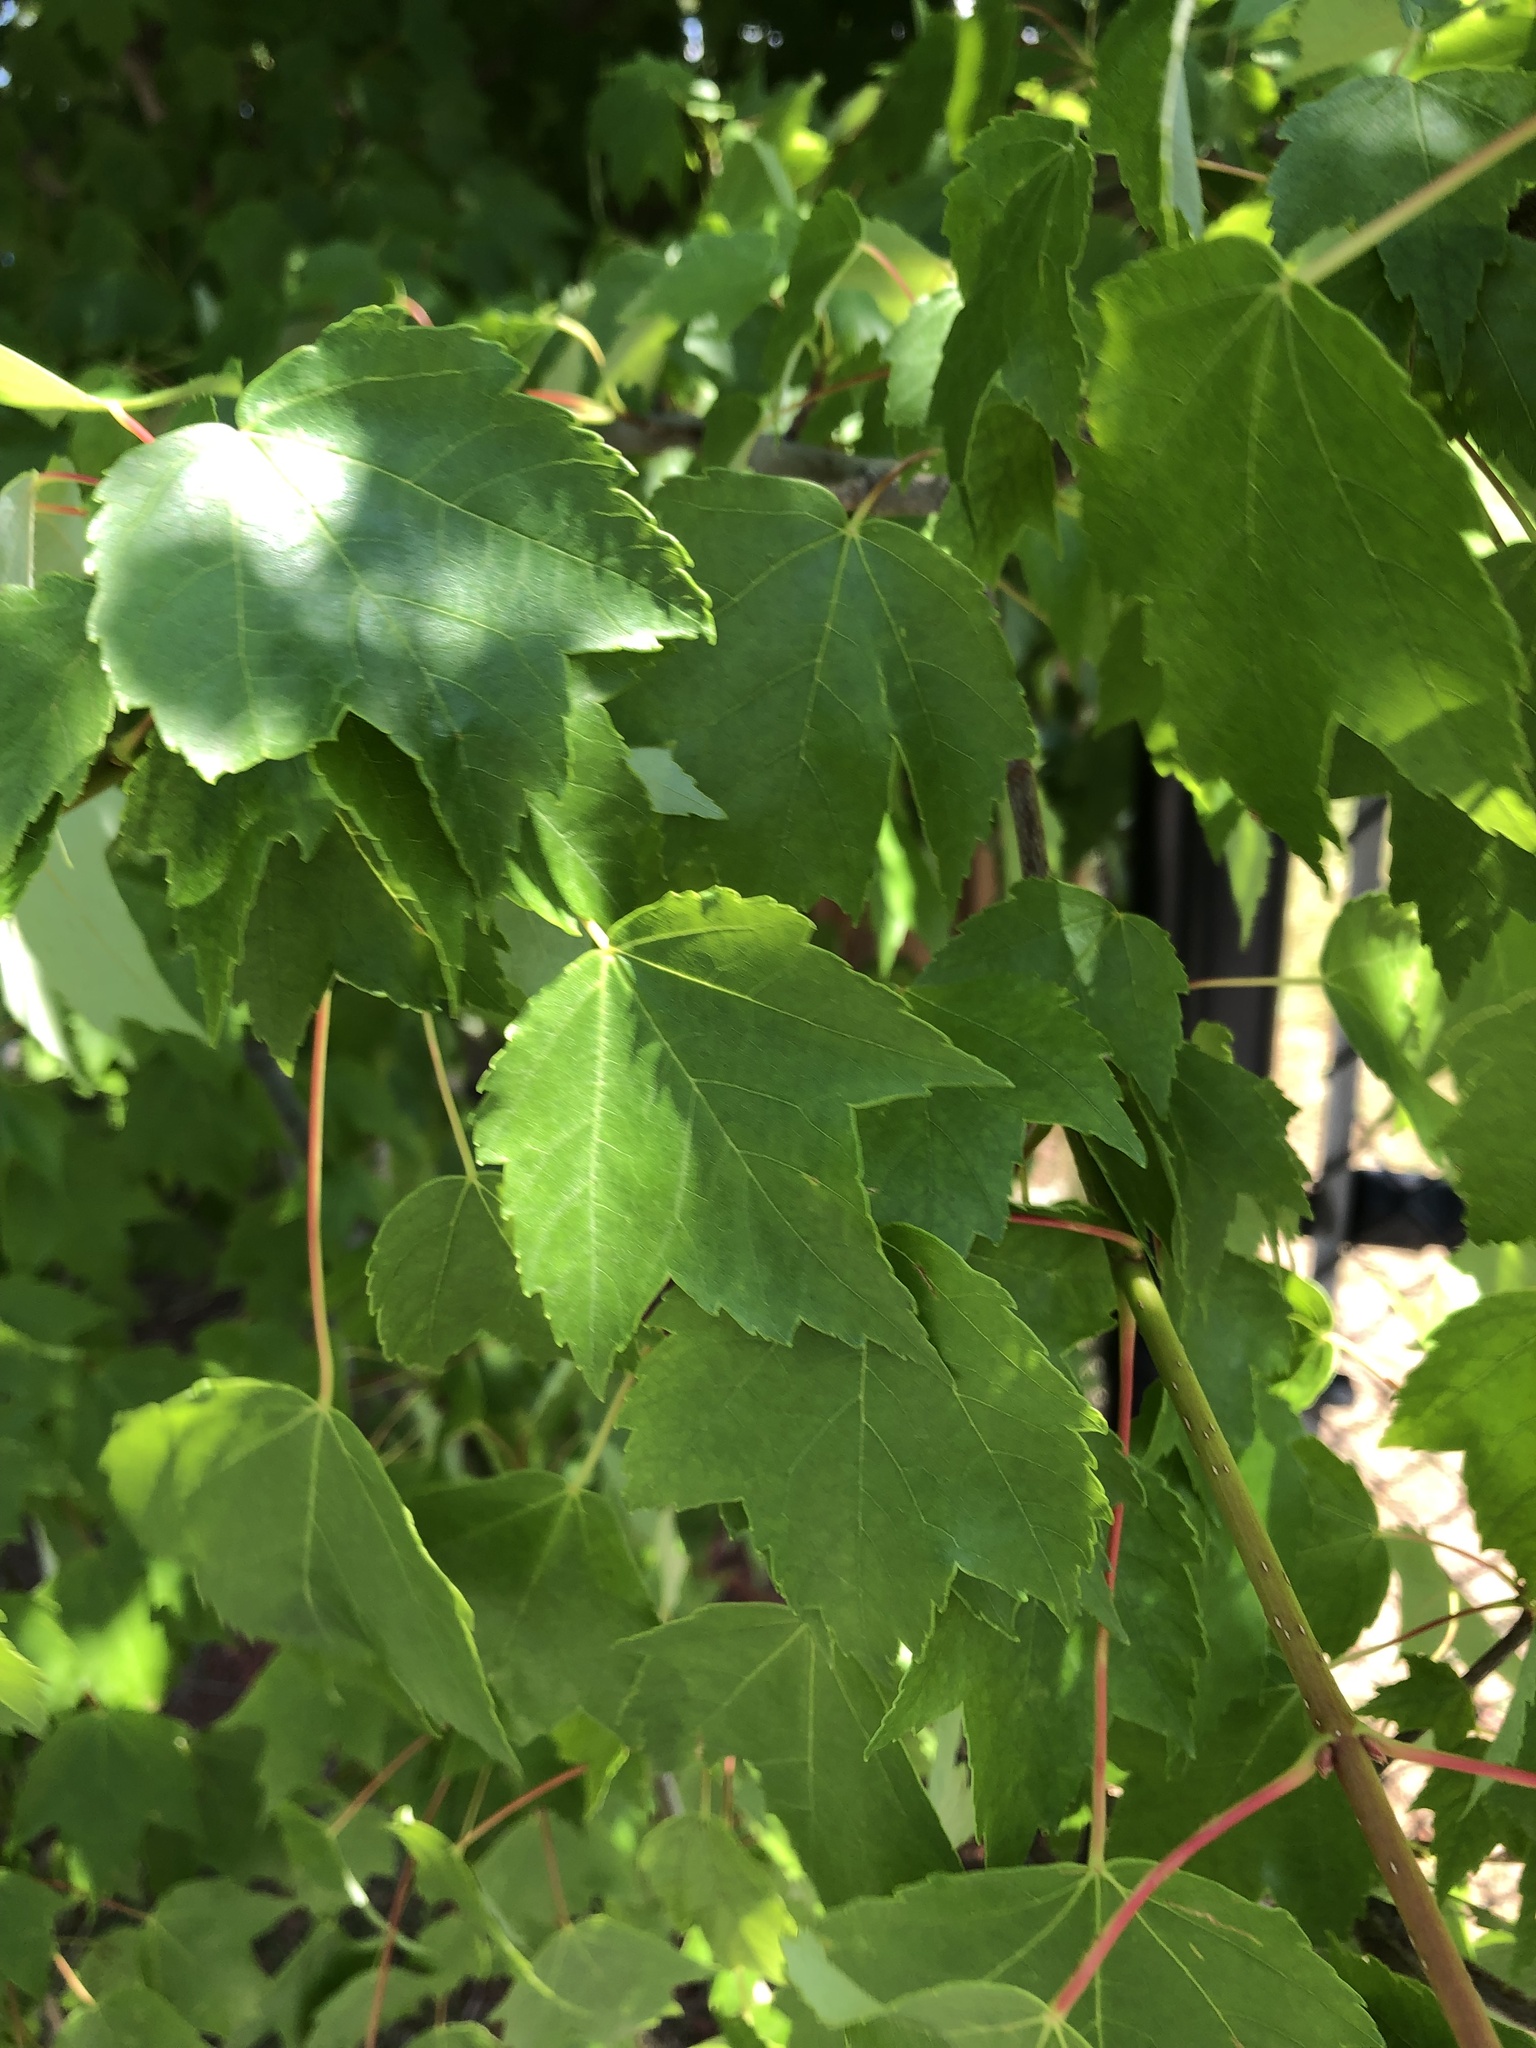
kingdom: Plantae
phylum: Tracheophyta
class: Magnoliopsida
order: Sapindales
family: Sapindaceae
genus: Acer
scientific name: Acer rubrum
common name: Red maple
